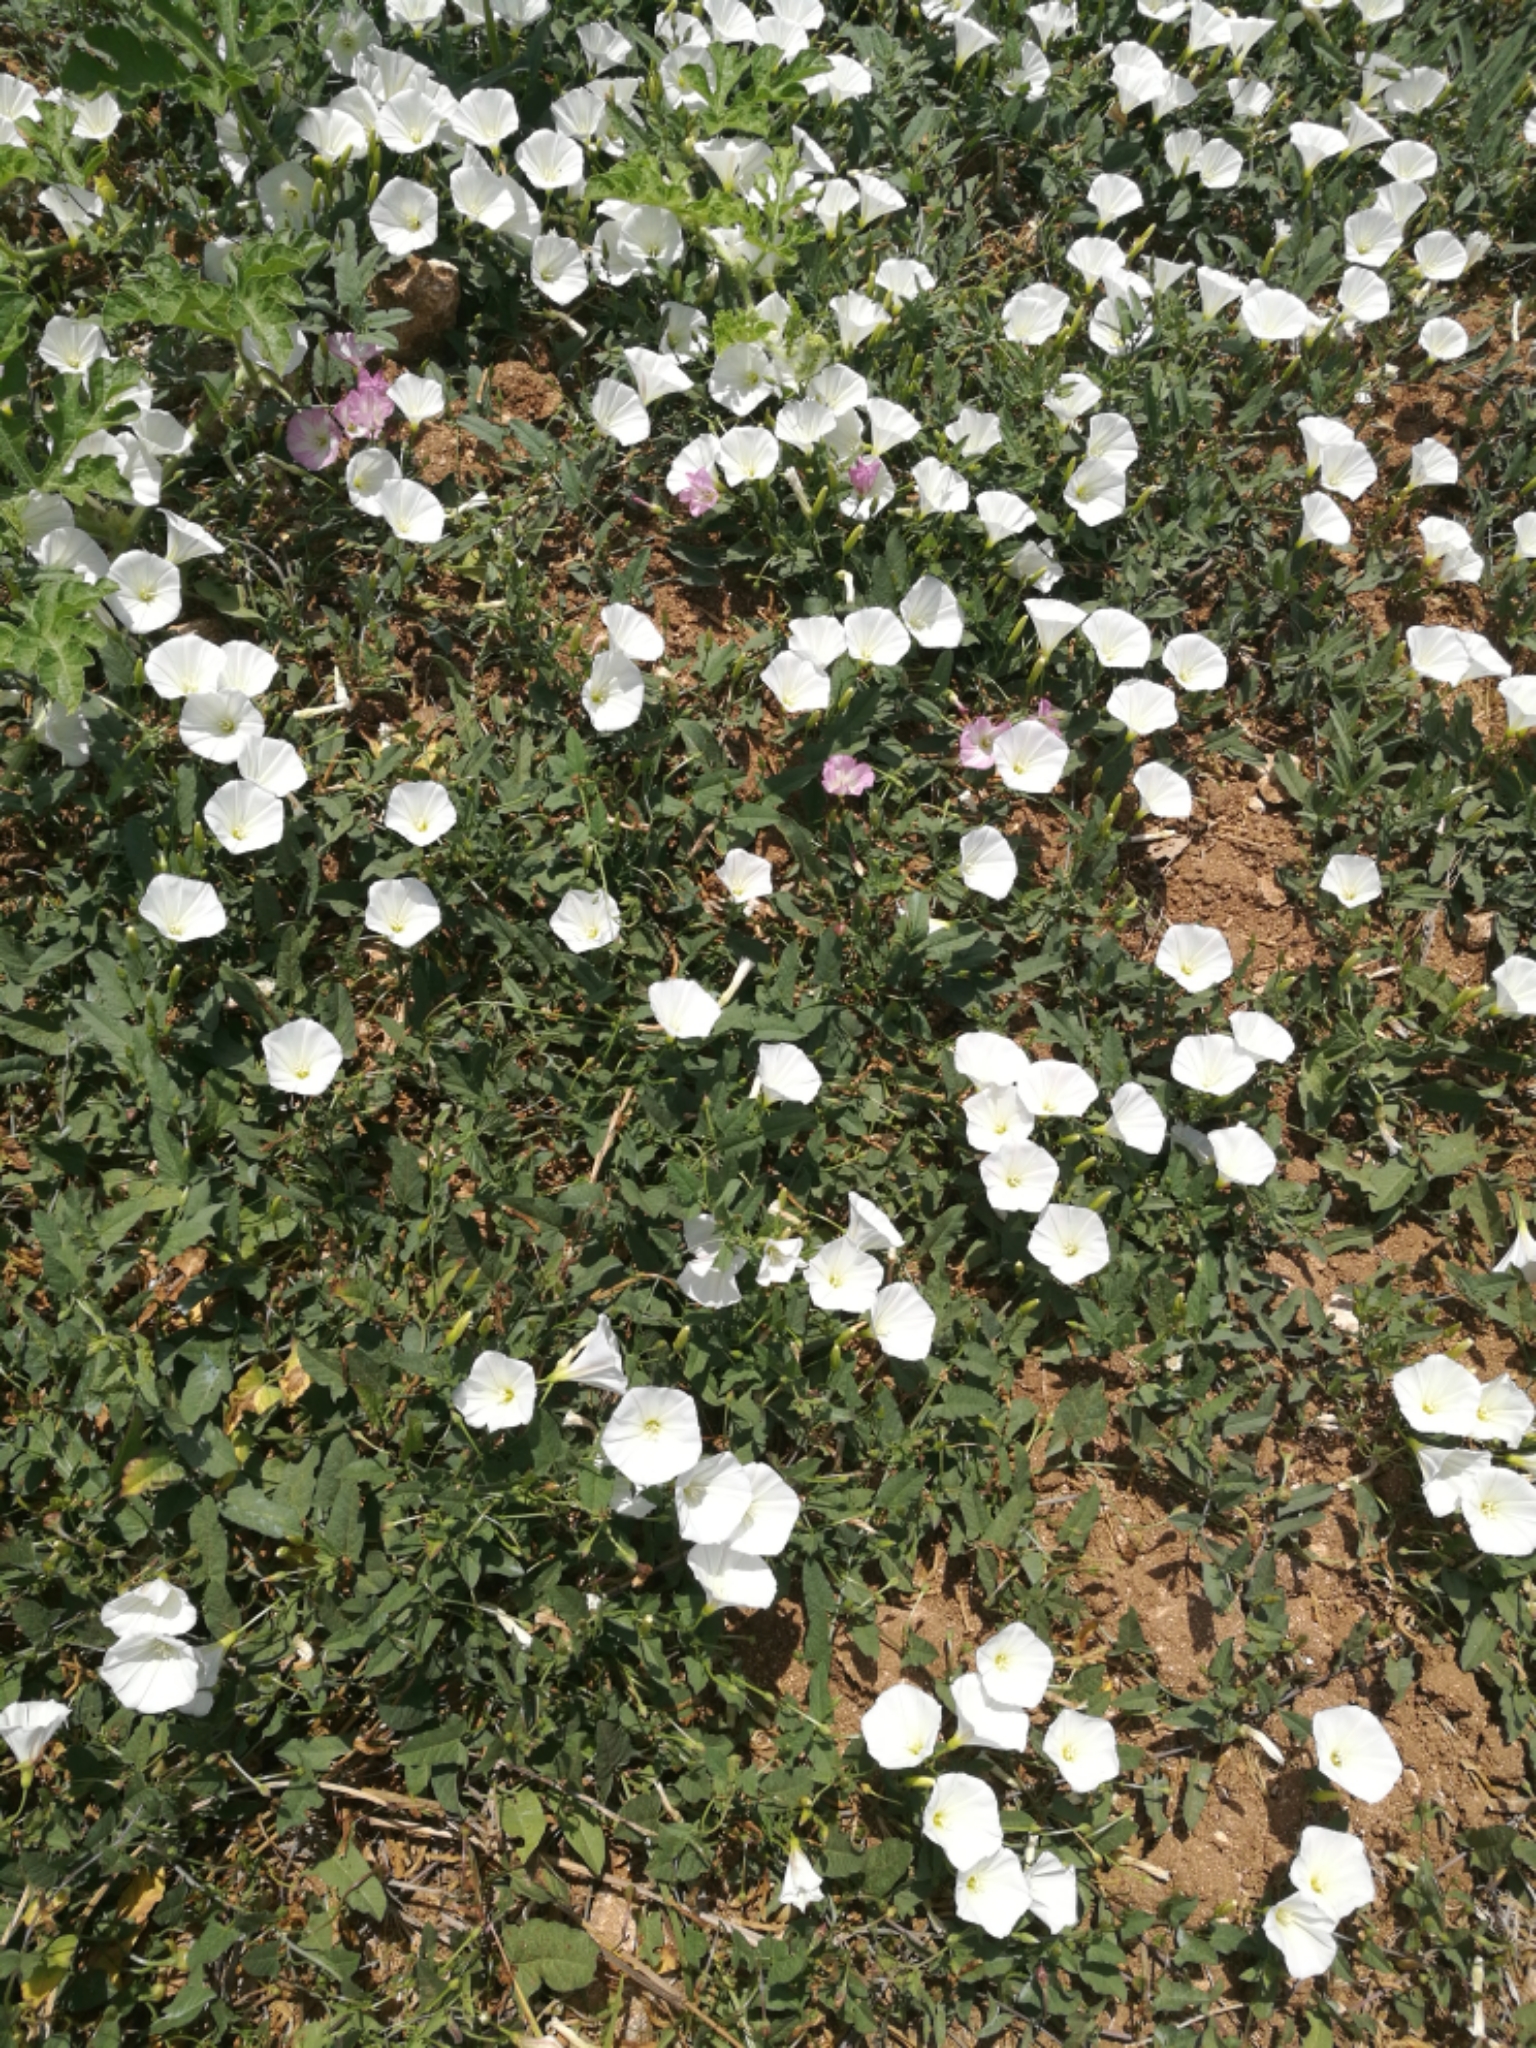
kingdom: Plantae
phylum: Tracheophyta
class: Magnoliopsida
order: Solanales
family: Convolvulaceae
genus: Convolvulus
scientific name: Convolvulus arvensis
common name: Field bindweed
